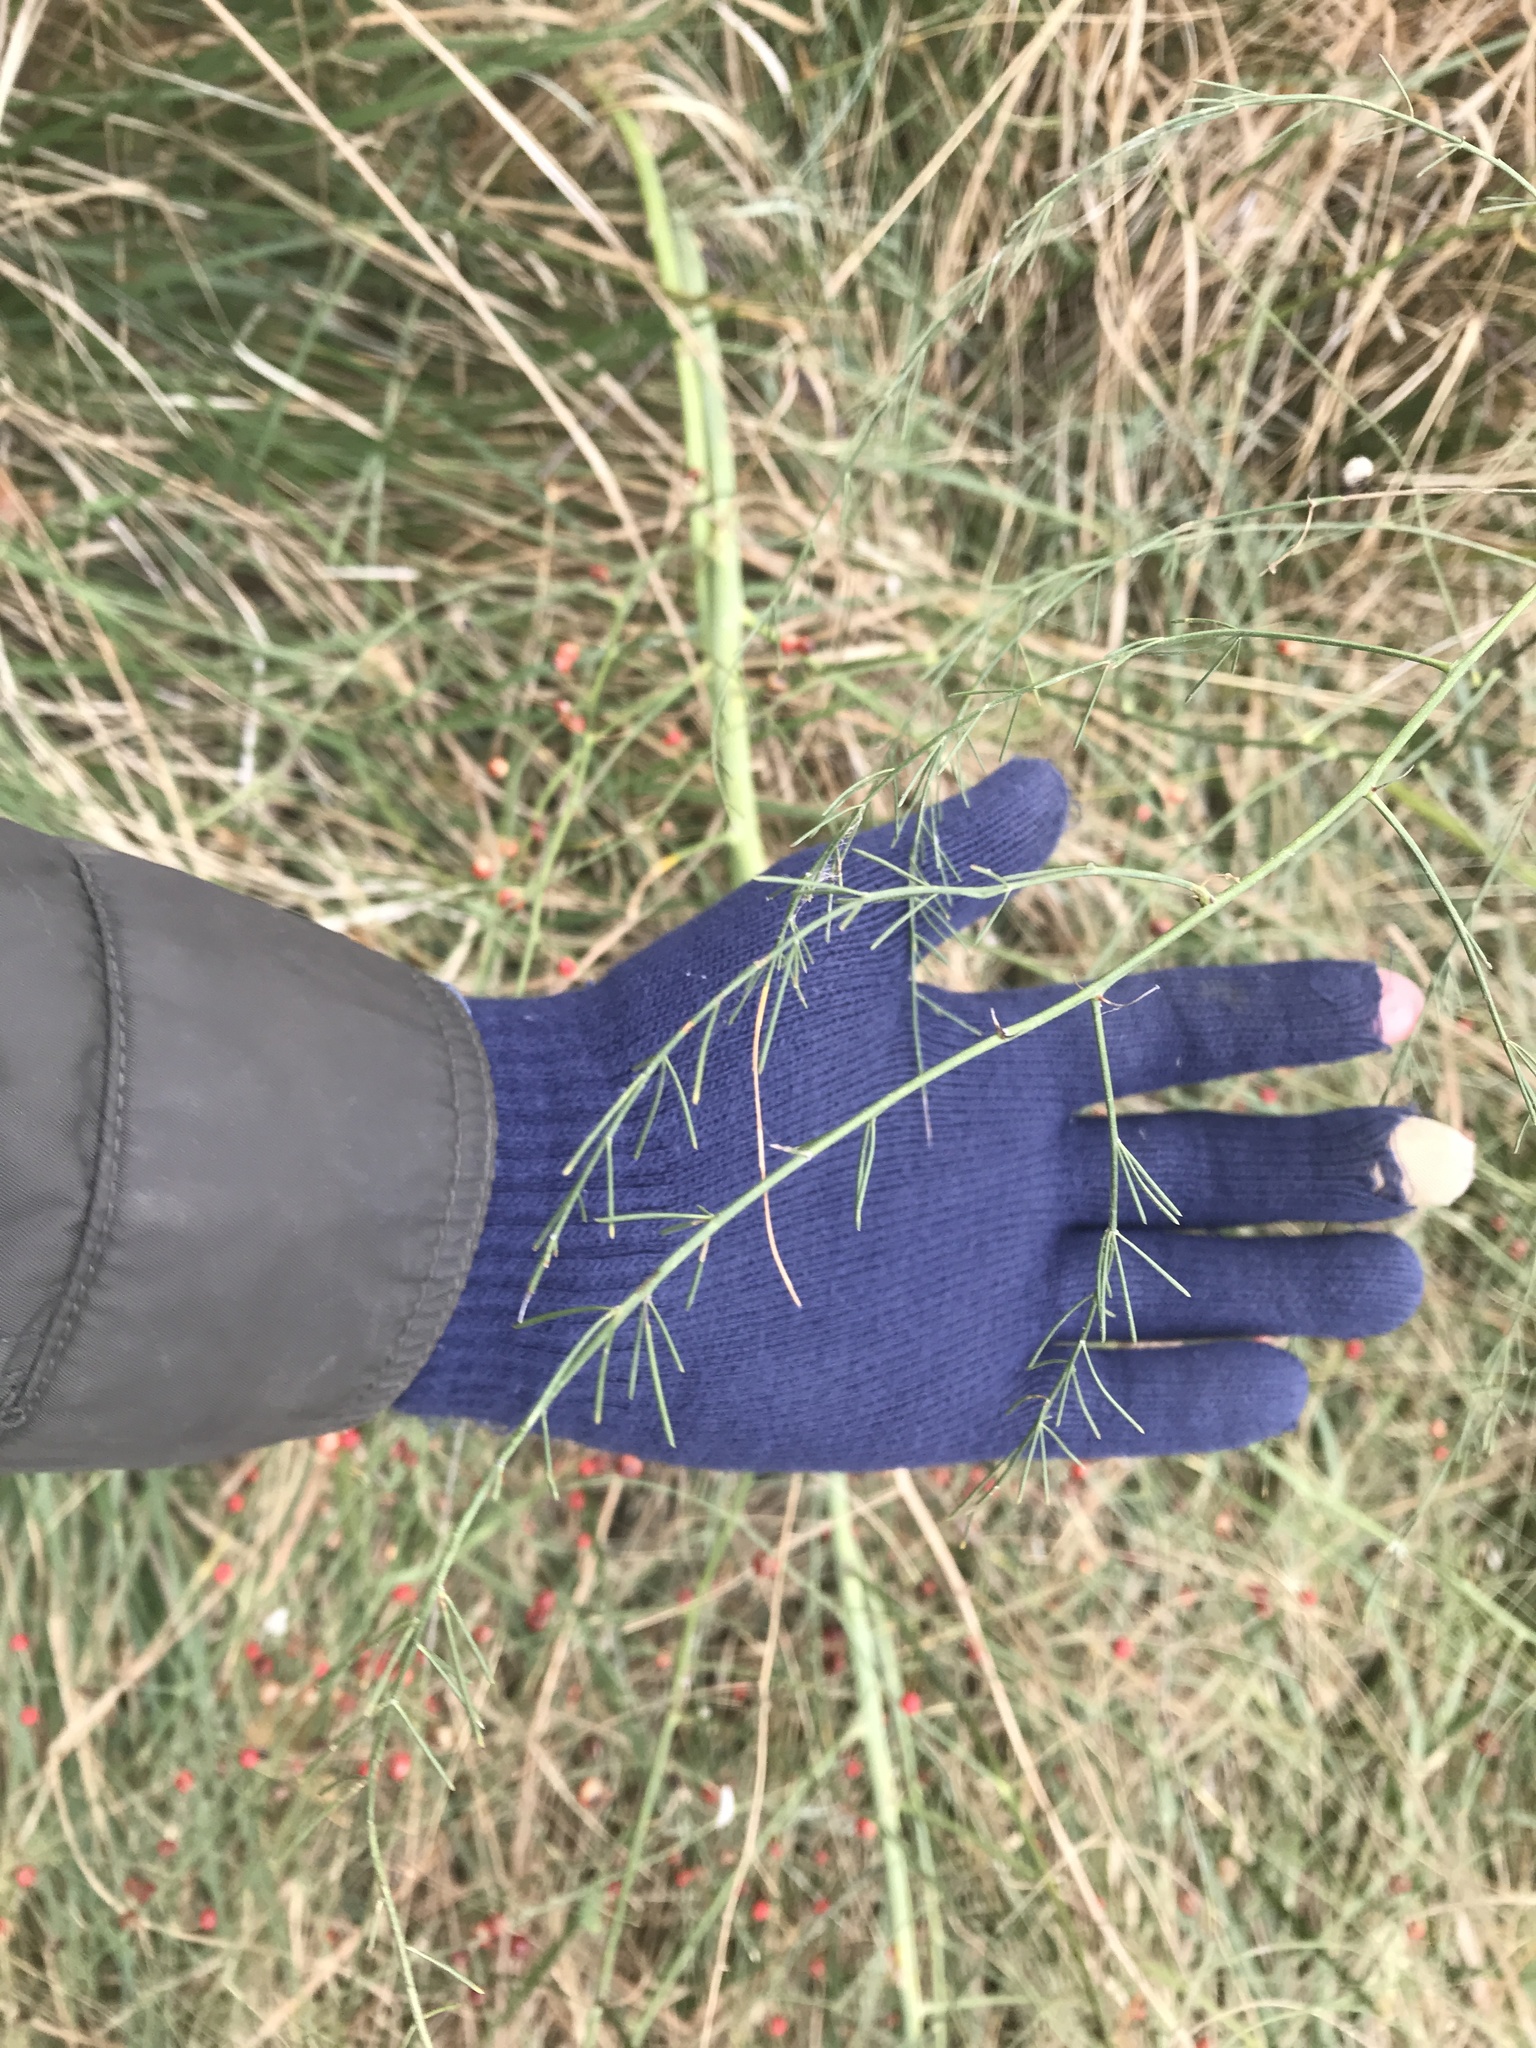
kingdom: Plantae
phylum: Tracheophyta
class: Liliopsida
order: Asparagales
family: Asparagaceae
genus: Asparagus
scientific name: Asparagus officinalis
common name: Garden asparagus
